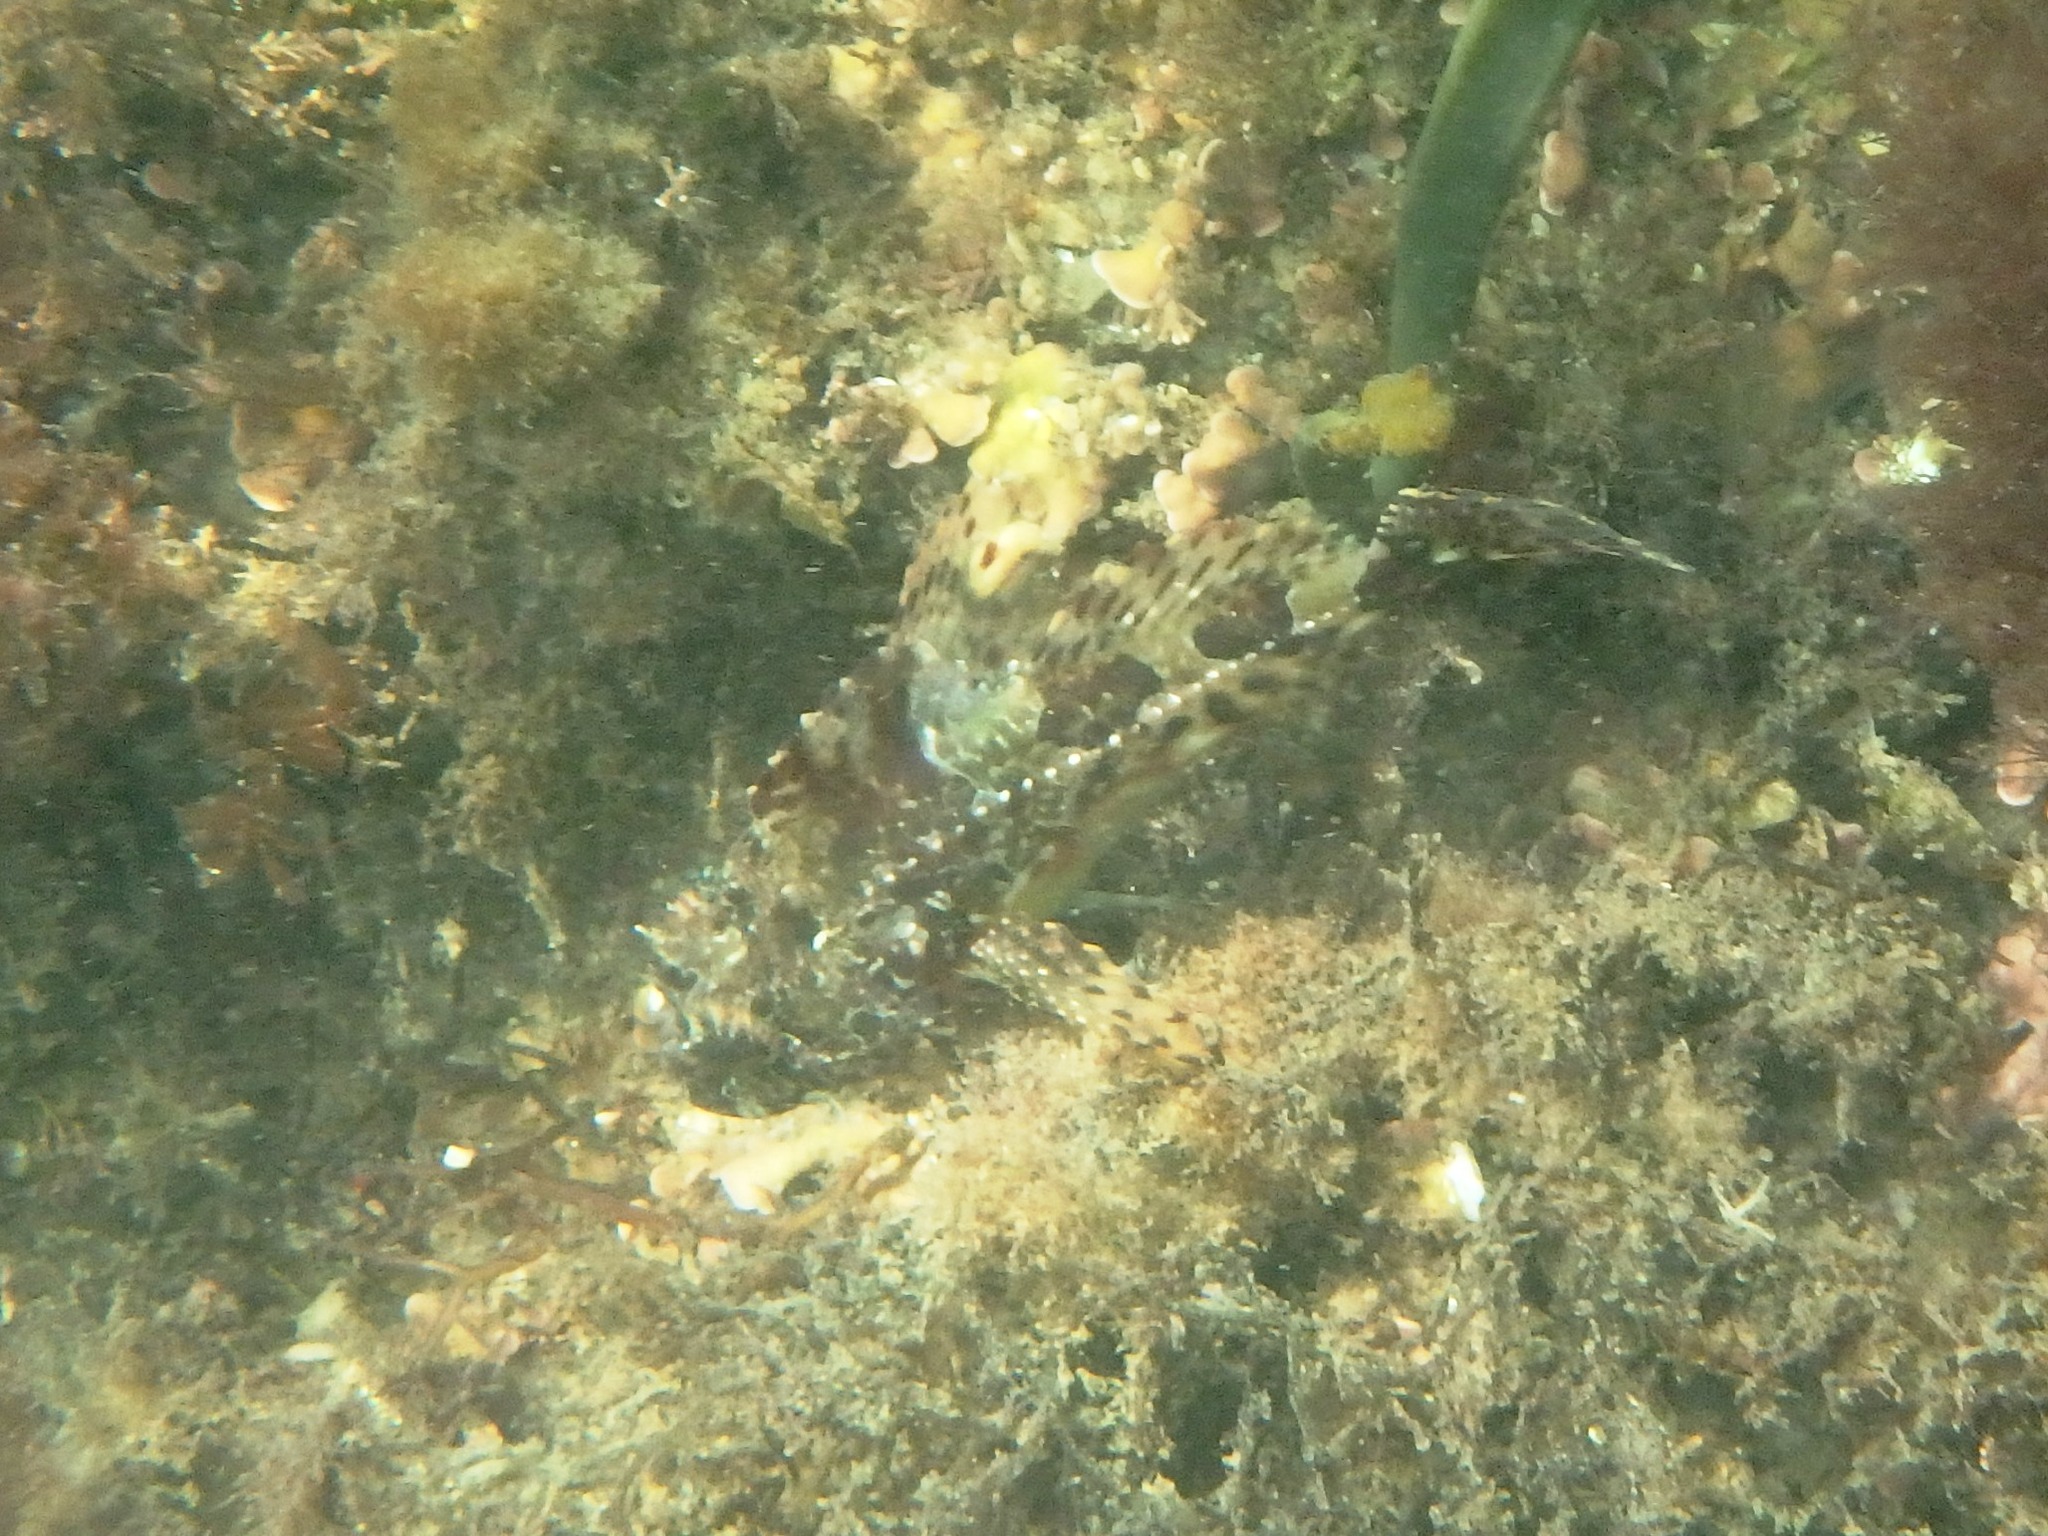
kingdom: Animalia
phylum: Chordata
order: Scorpaeniformes
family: Cottidae
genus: Taurulus
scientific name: Taurulus bubalis
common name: Sea scorpion
